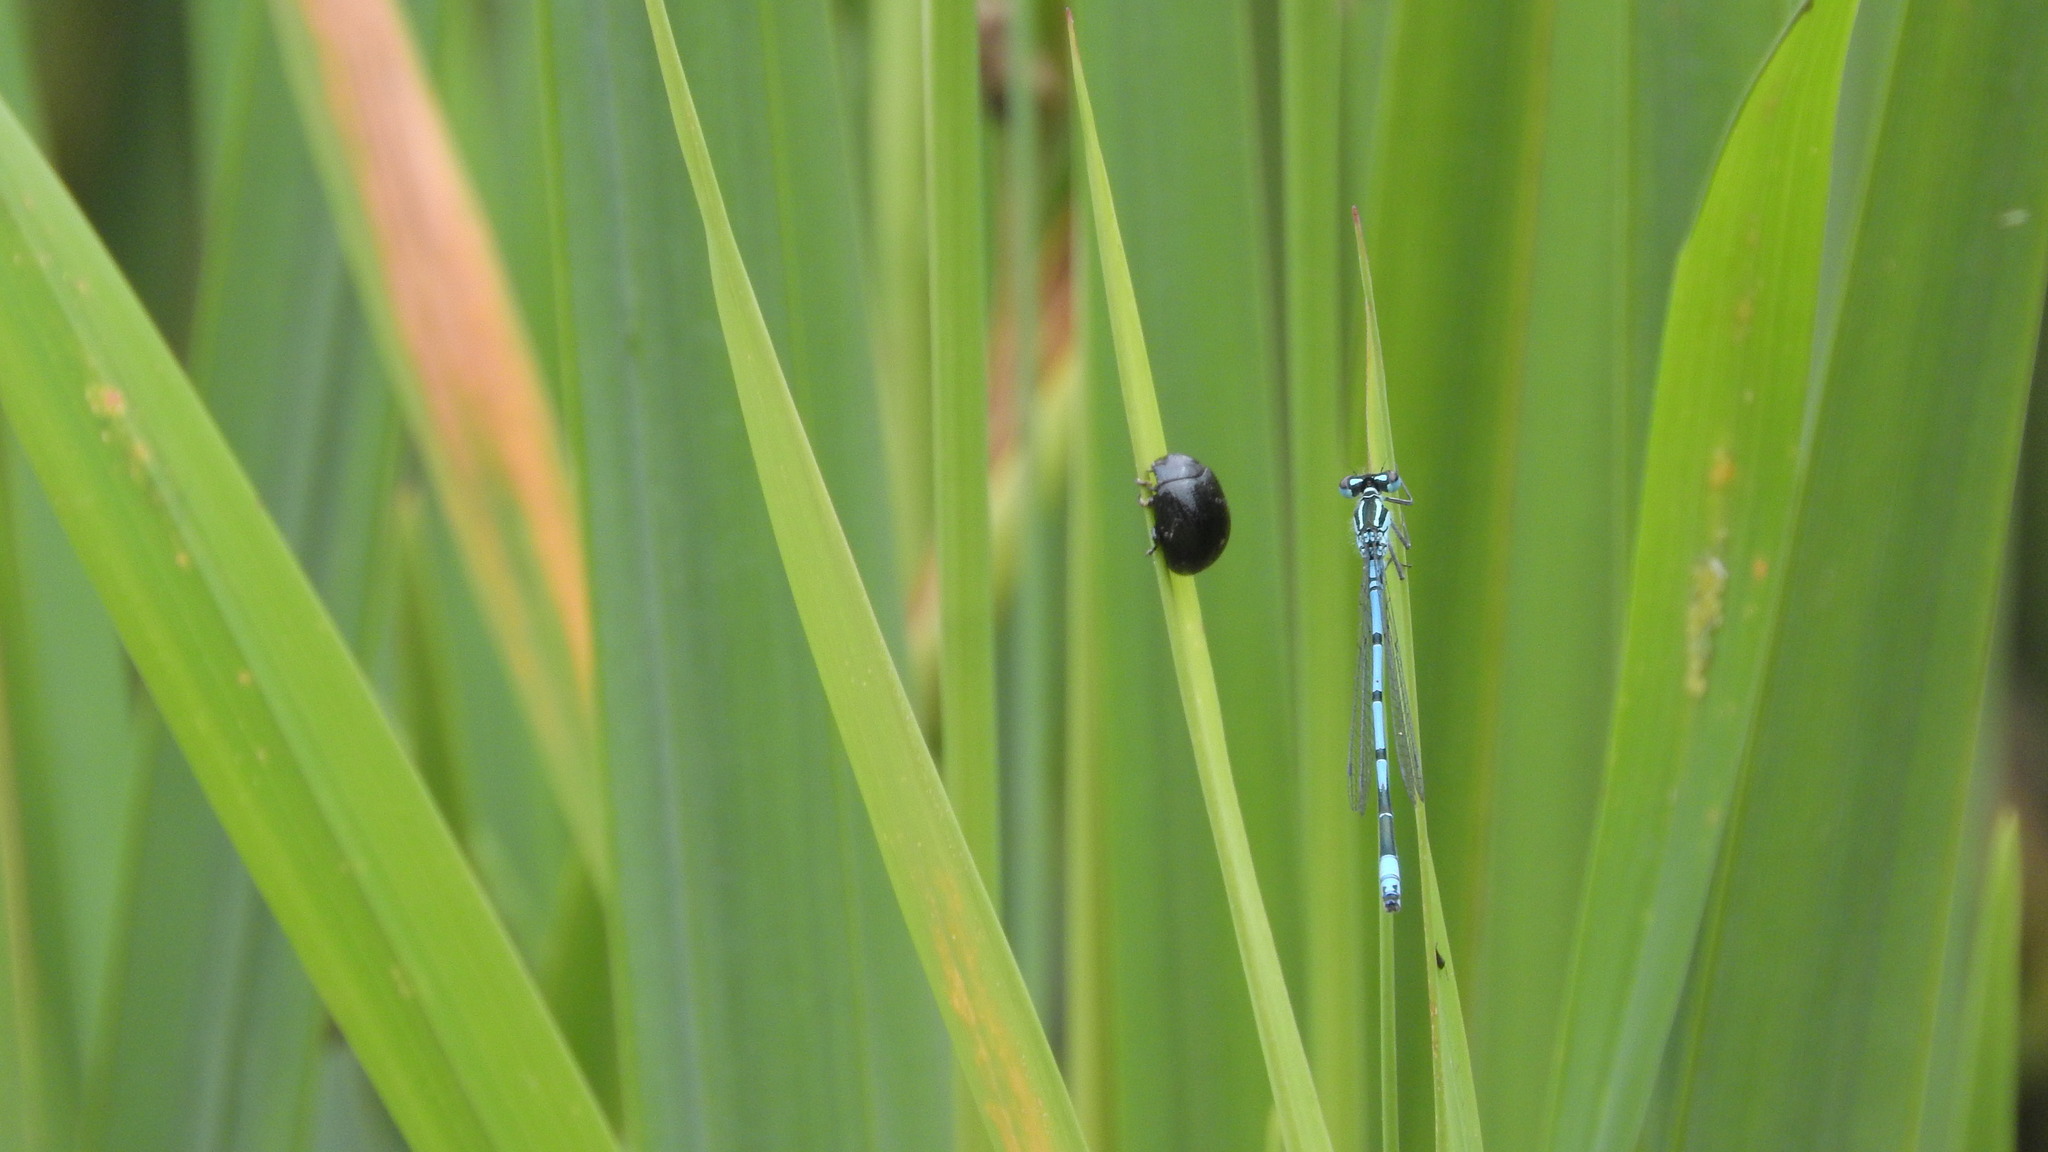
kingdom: Animalia
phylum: Arthropoda
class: Insecta
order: Odonata
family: Coenagrionidae
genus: Coenagrion
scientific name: Coenagrion puella
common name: Azure damselfly
